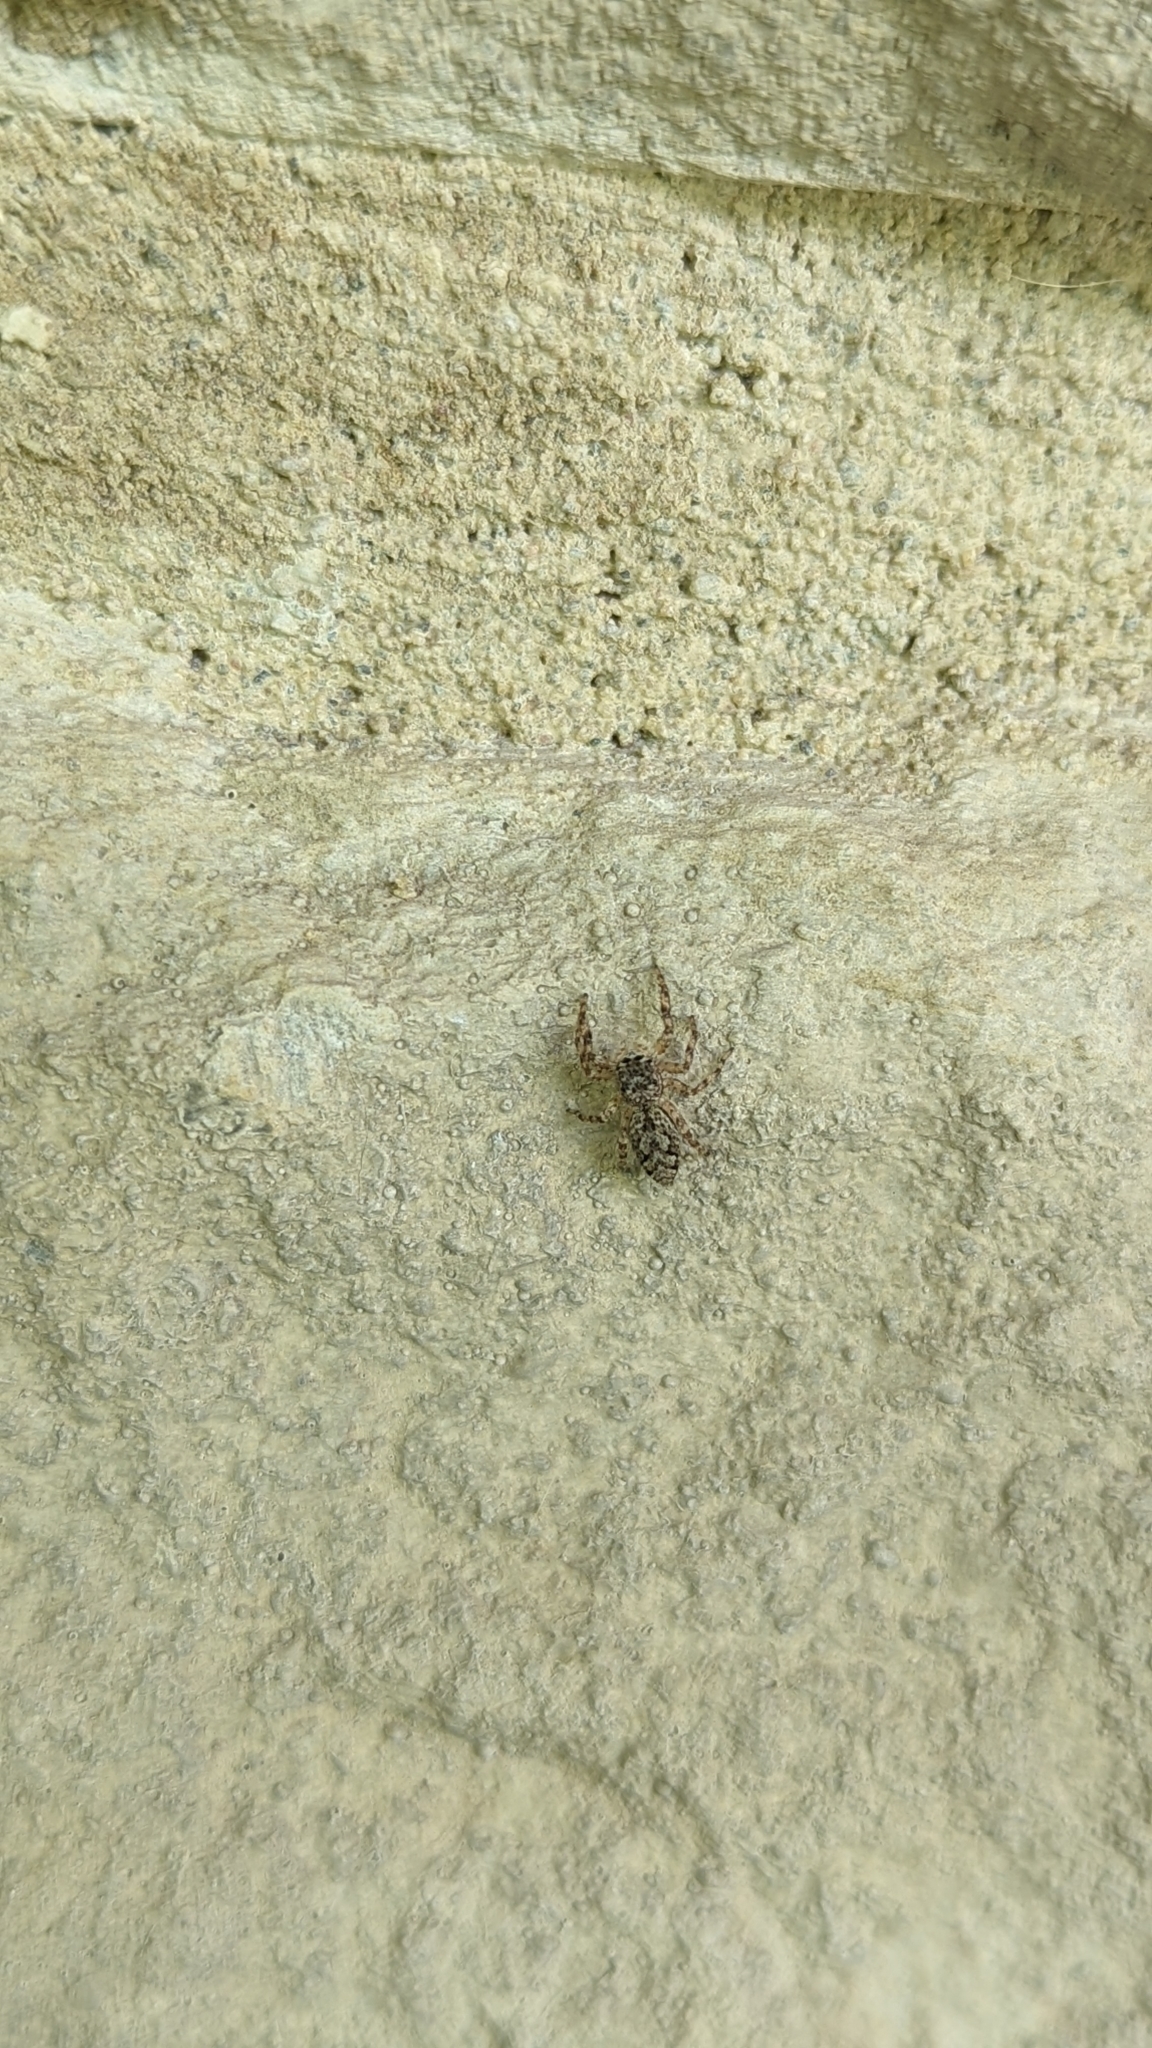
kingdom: Animalia
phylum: Arthropoda
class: Arachnida
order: Araneae
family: Salticidae
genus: Platycryptus
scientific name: Platycryptus undatus
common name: Tan jumping spider
